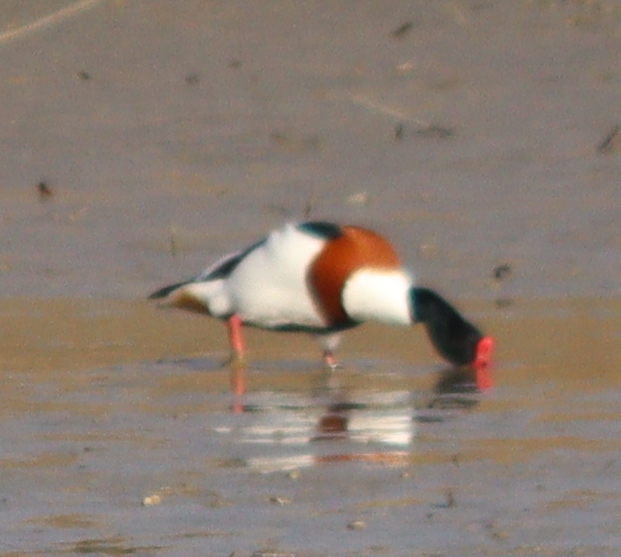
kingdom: Animalia
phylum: Chordata
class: Aves
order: Anseriformes
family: Anatidae
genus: Tadorna
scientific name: Tadorna tadorna
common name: Common shelduck
